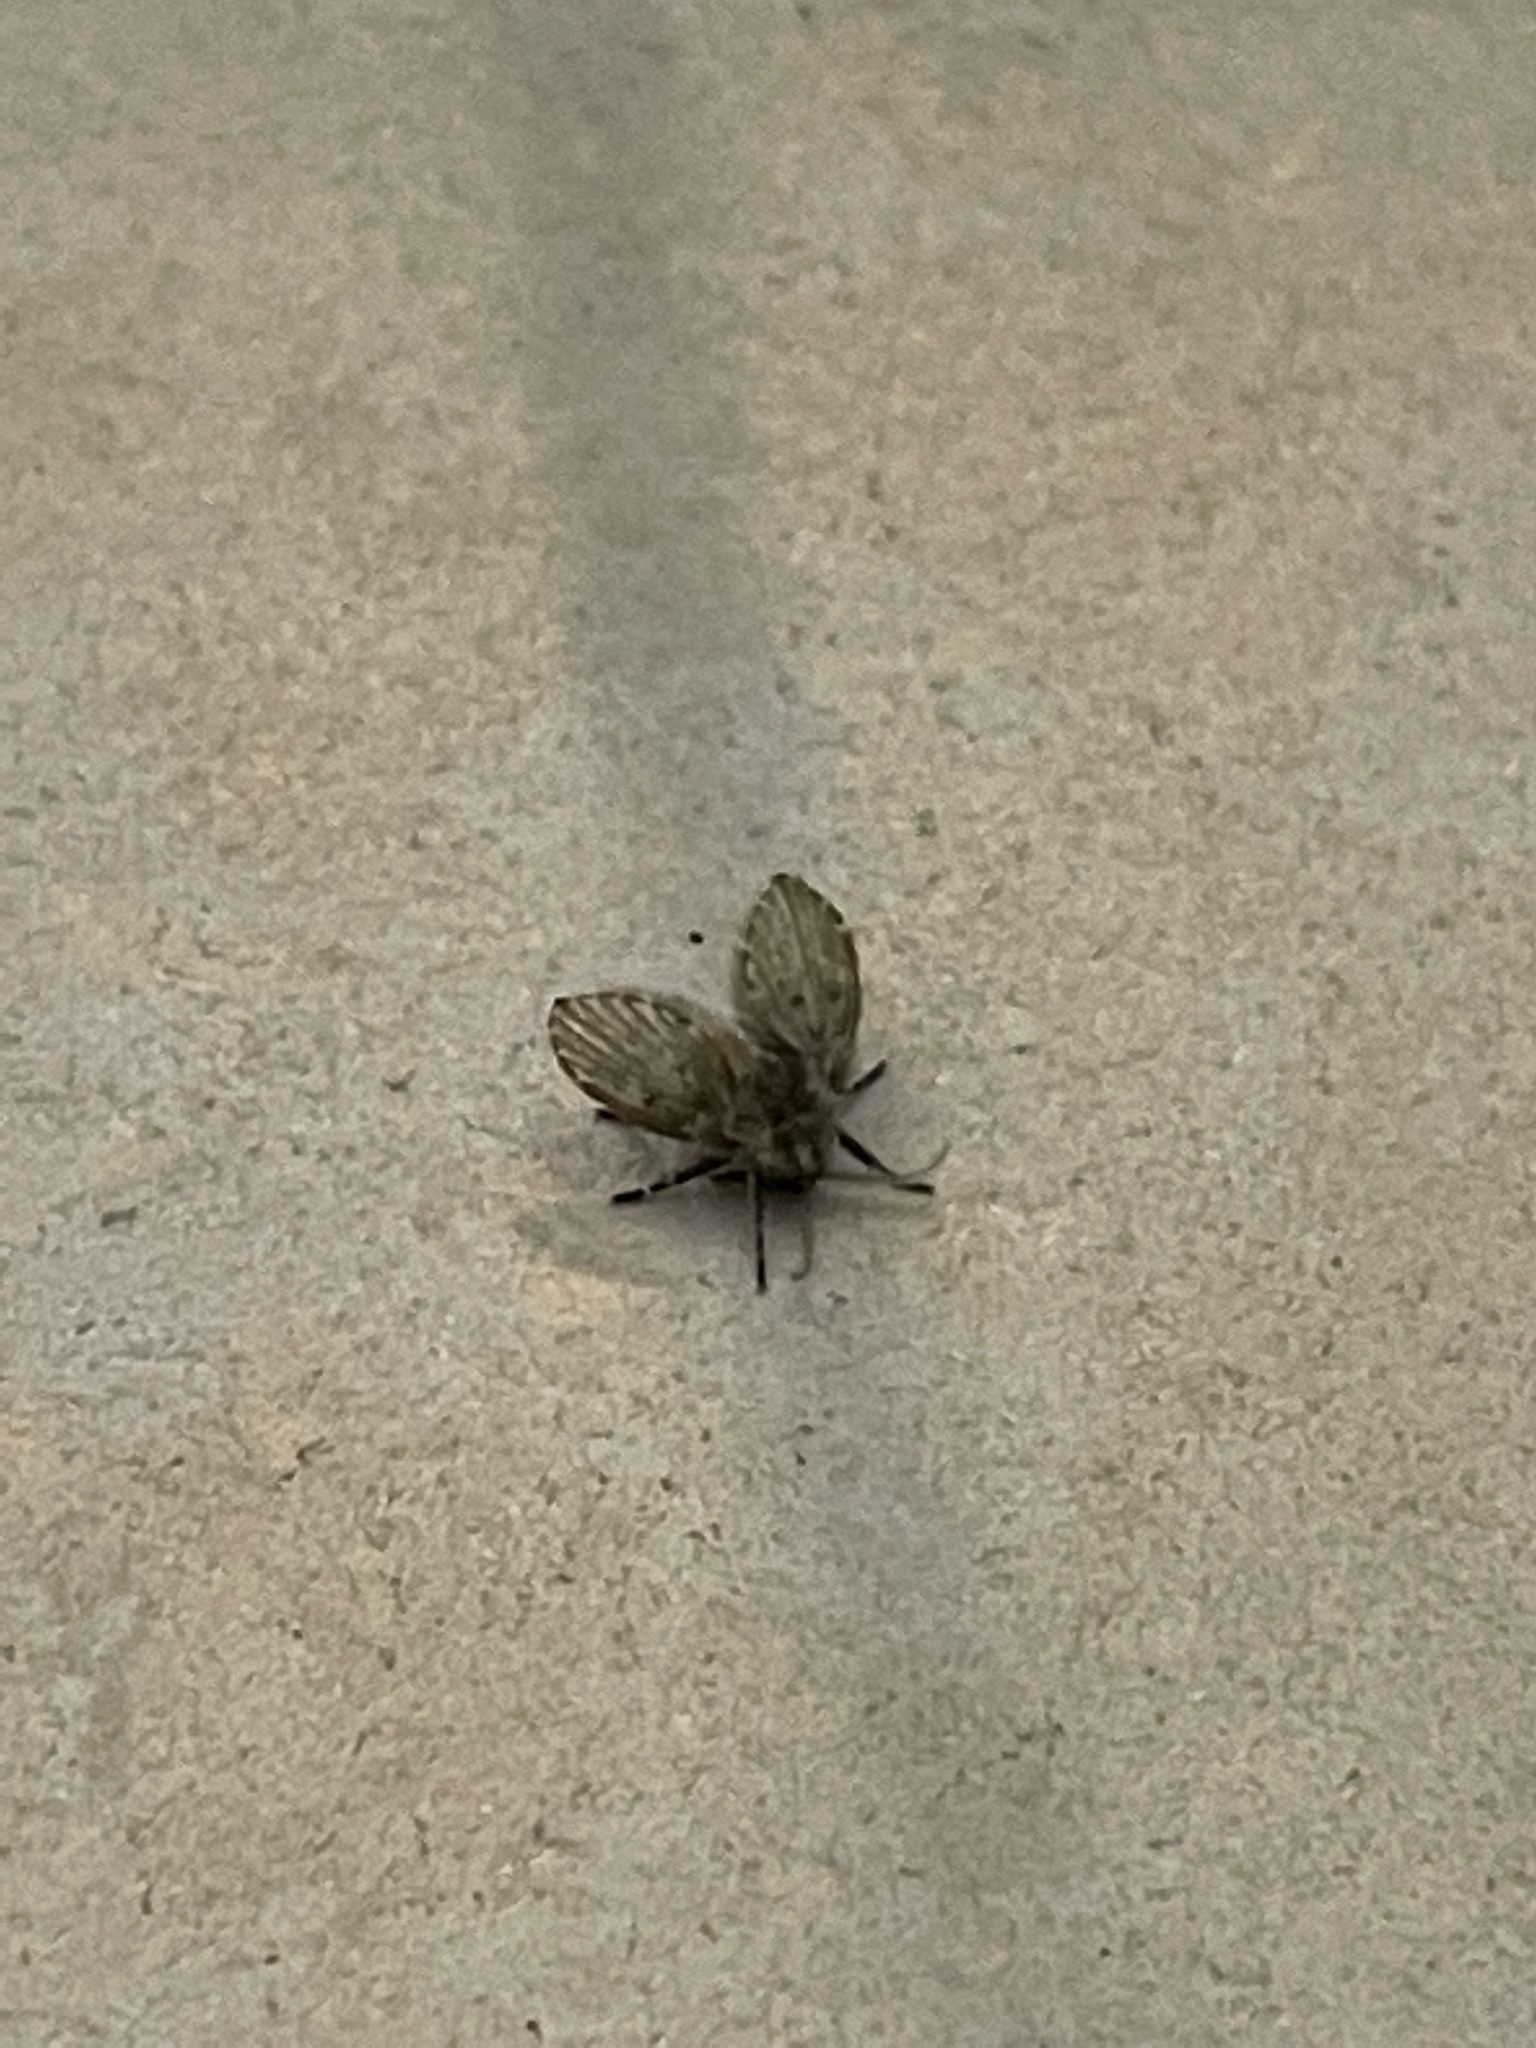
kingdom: Animalia
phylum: Arthropoda
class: Insecta
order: Diptera
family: Psychodidae
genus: Clogmia
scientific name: Clogmia albipunctatus
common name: White-spotted moth fly
